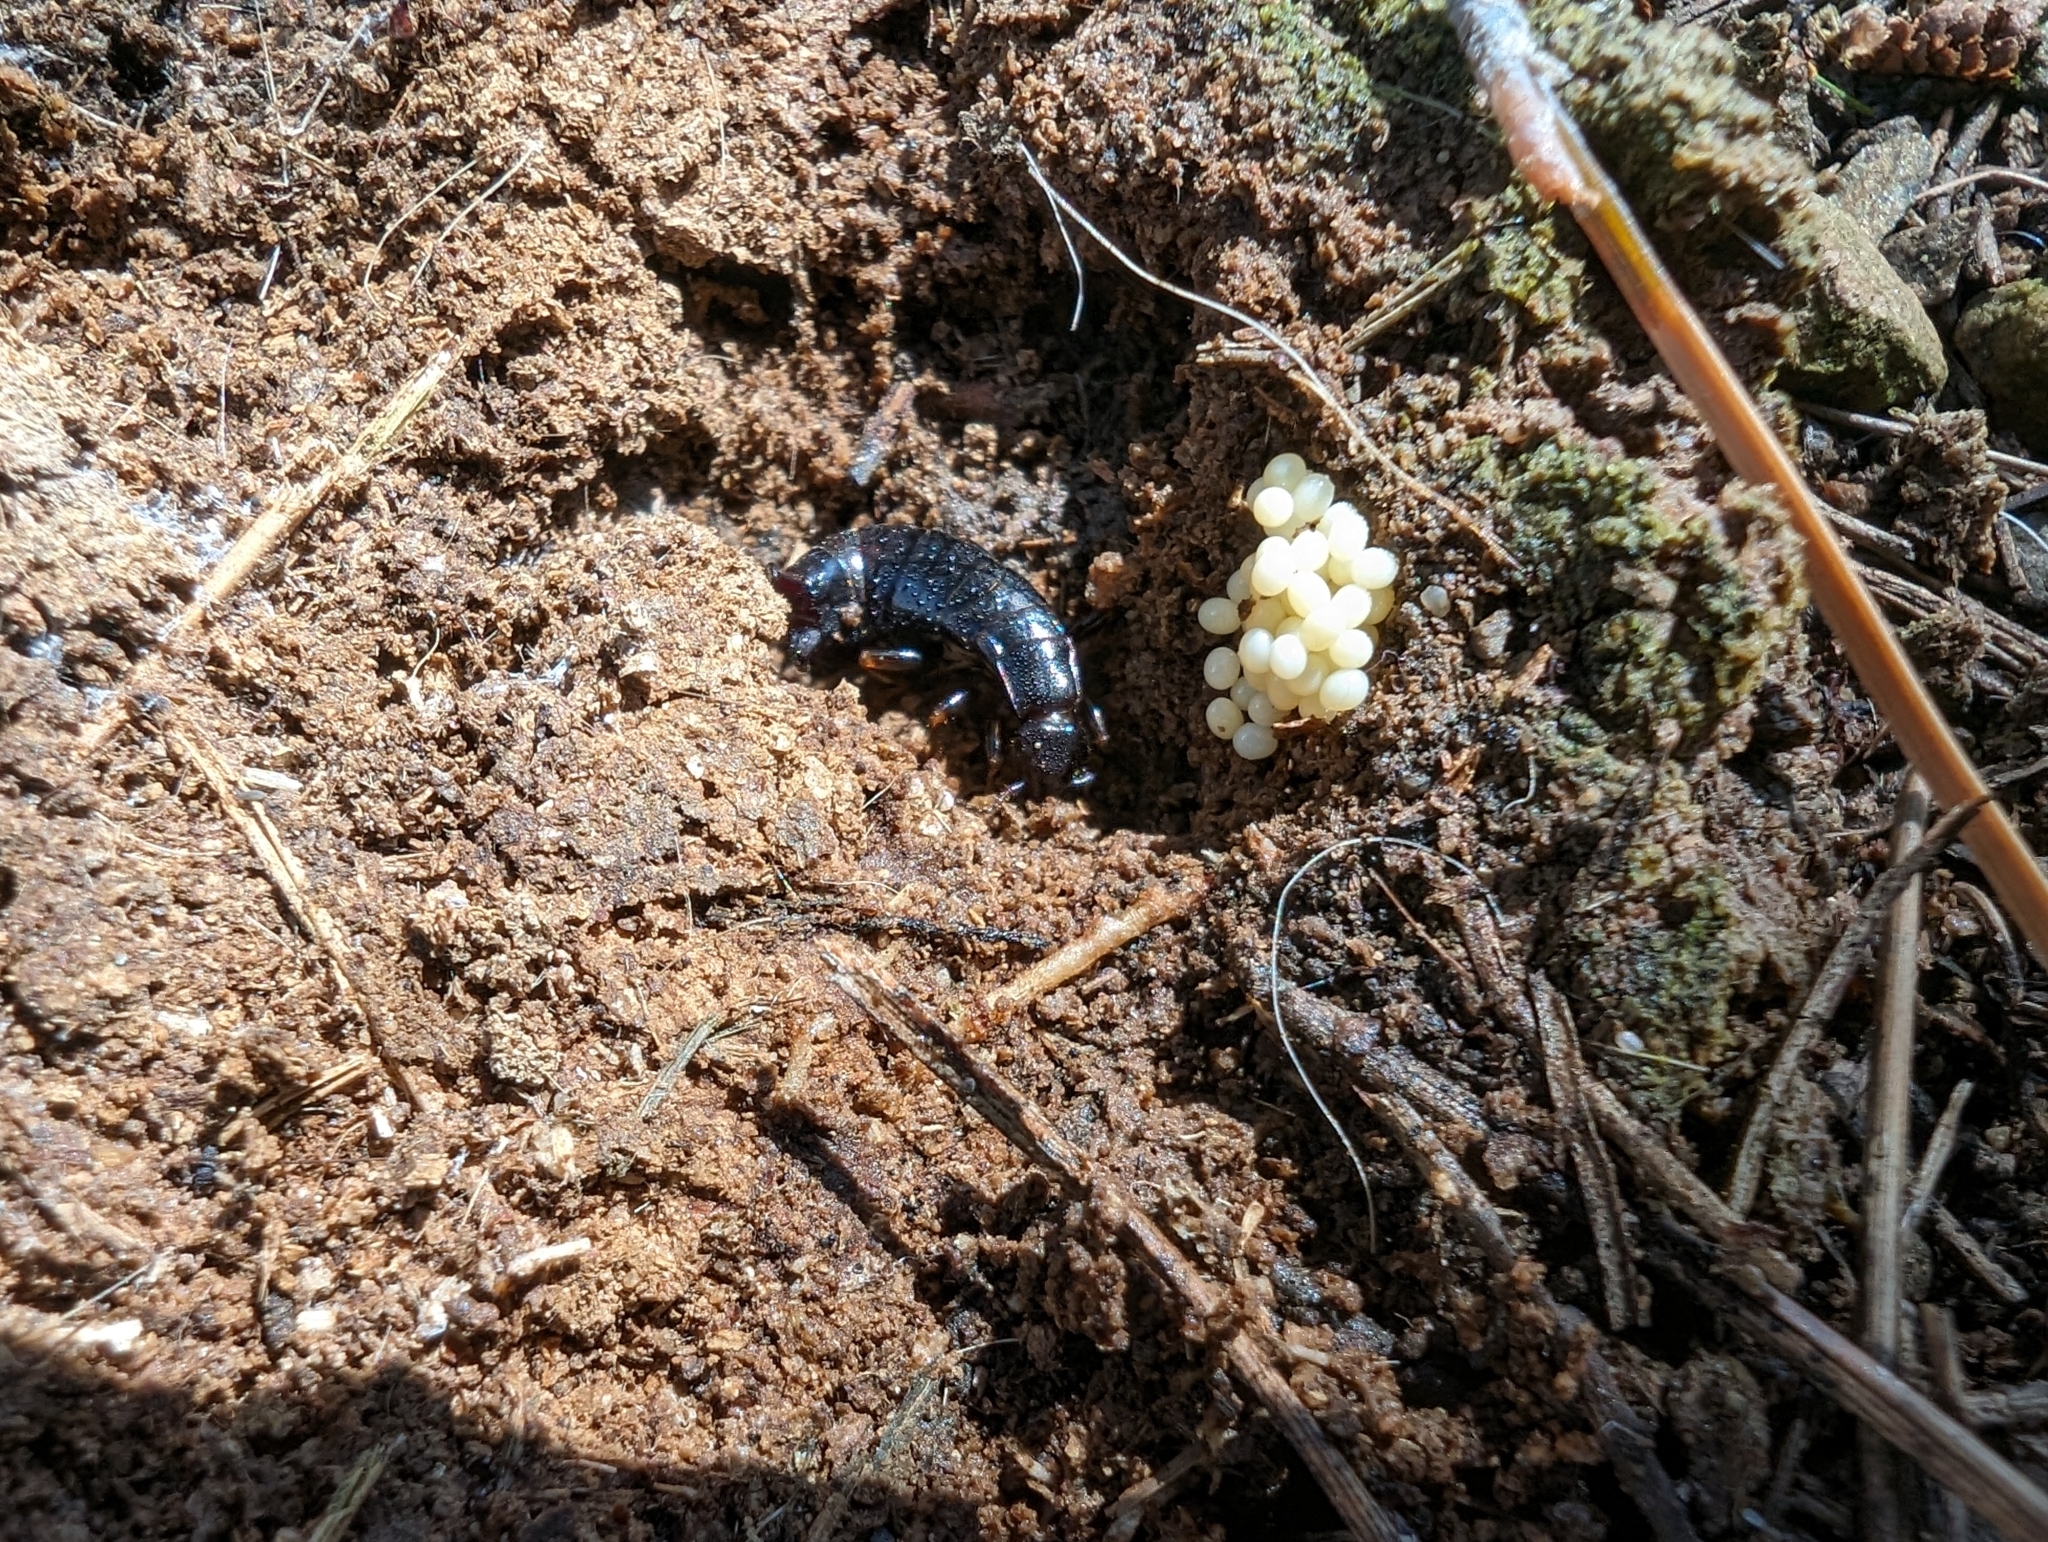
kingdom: Animalia
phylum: Arthropoda
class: Insecta
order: Dermaptera
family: Anisolabididae
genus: Euborellia
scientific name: Euborellia moesta
